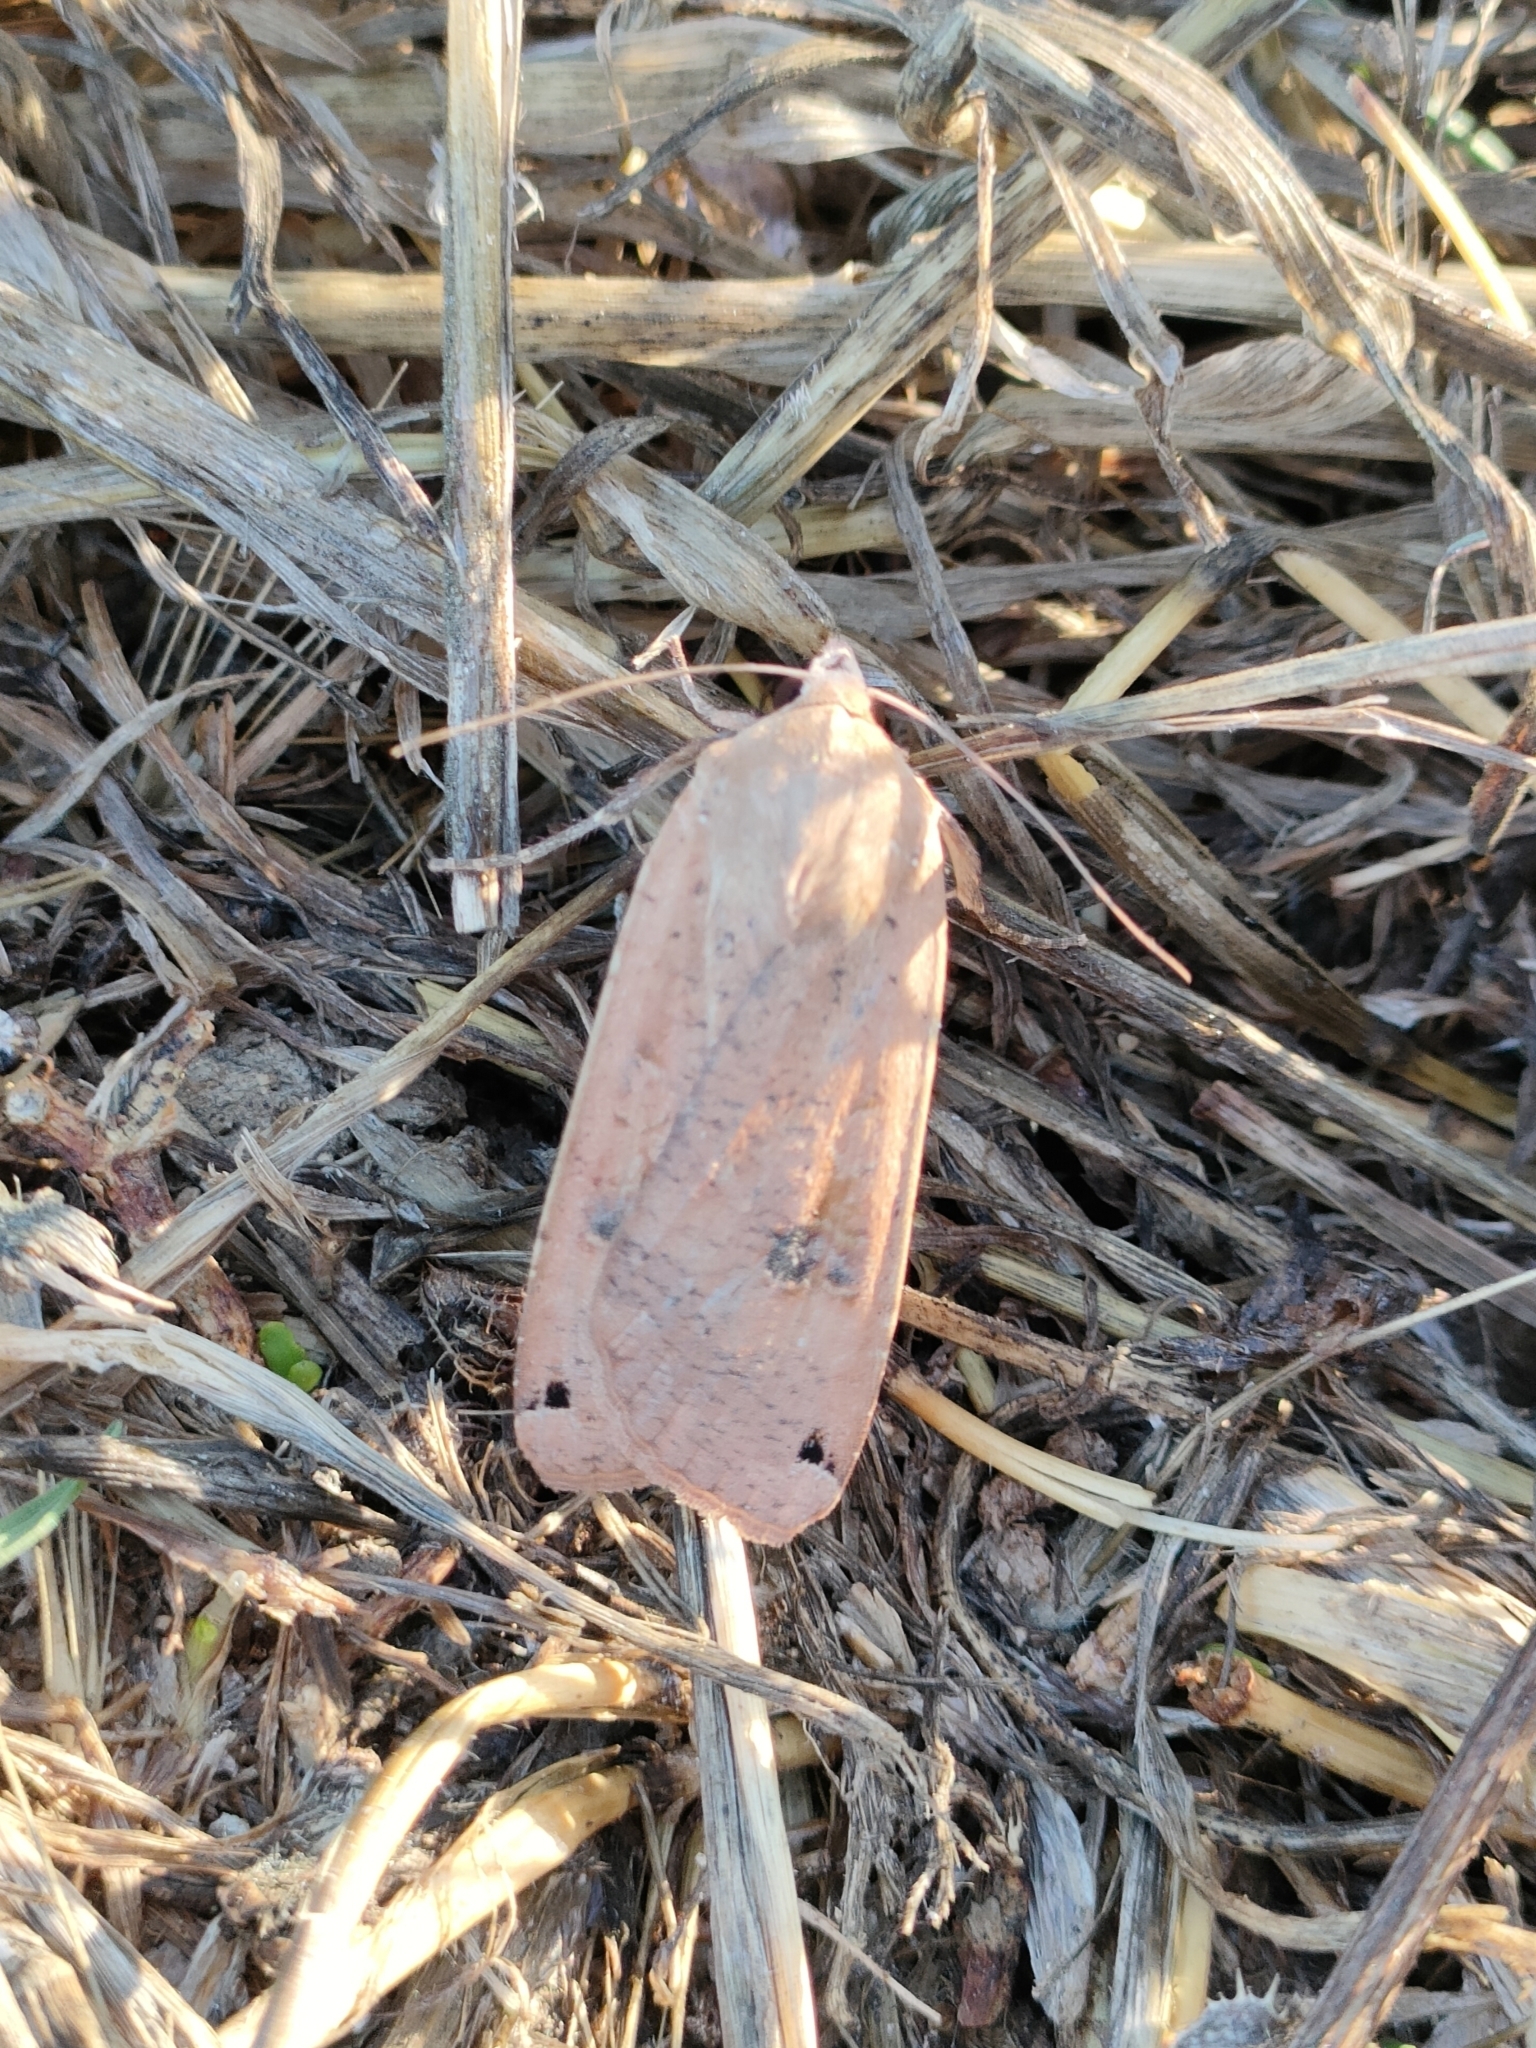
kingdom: Animalia
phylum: Arthropoda
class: Insecta
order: Lepidoptera
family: Noctuidae
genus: Noctua
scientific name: Noctua pronuba
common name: Large yellow underwing
